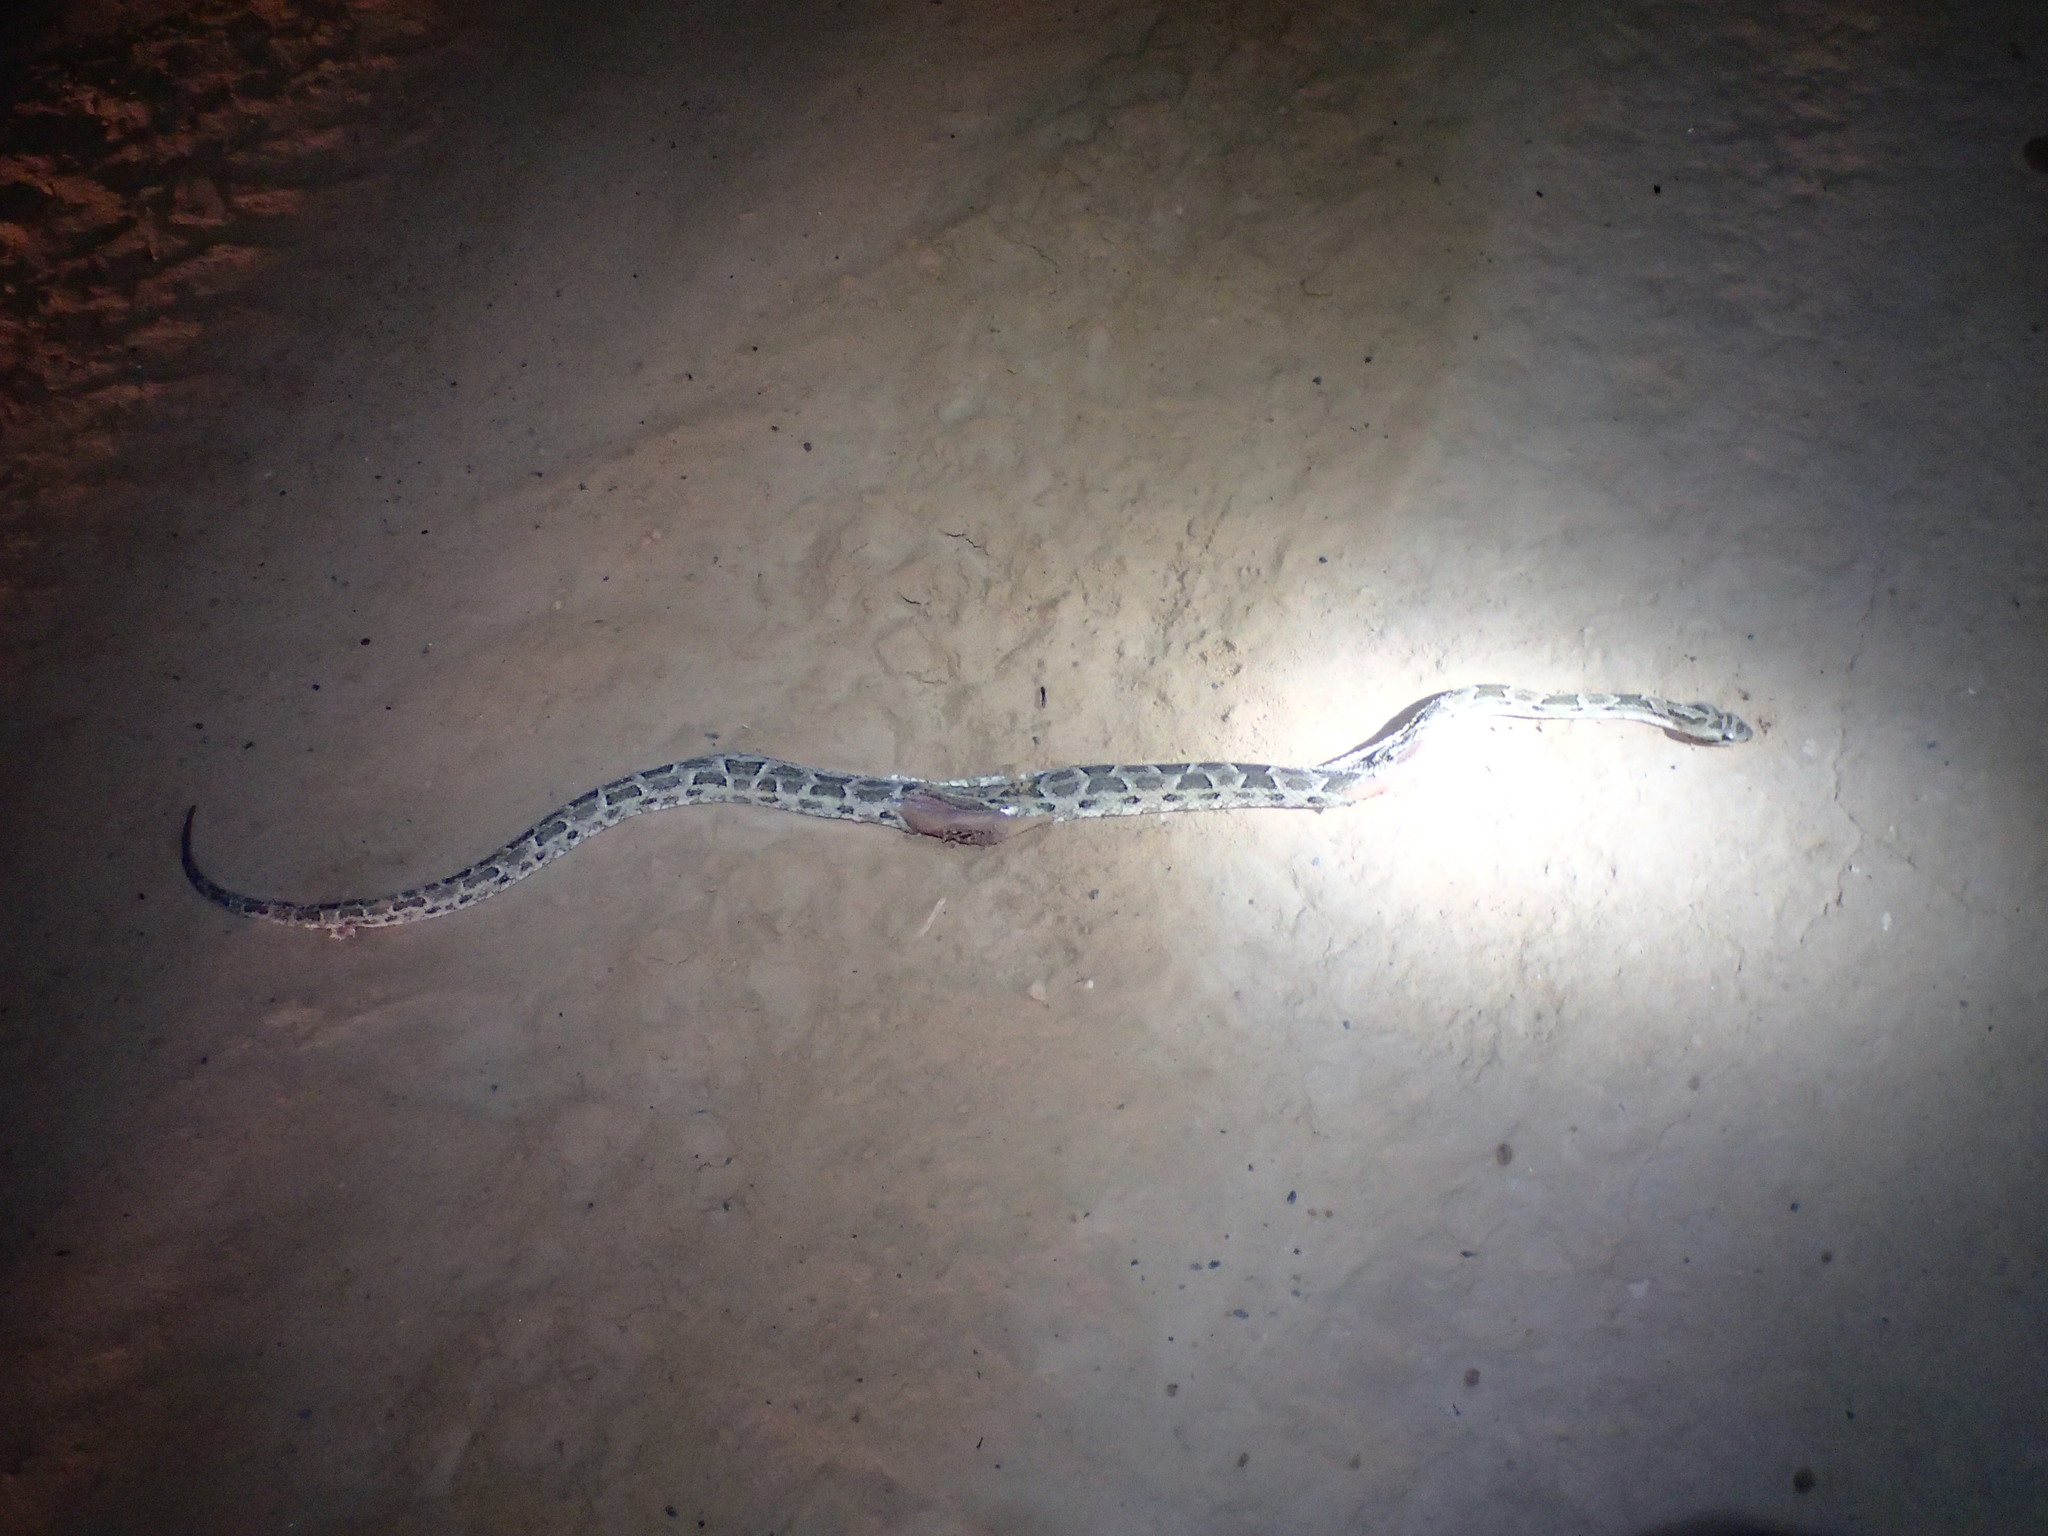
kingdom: Animalia
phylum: Chordata
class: Squamata
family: Viperidae
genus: Bothrops
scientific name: Bothrops diporus
